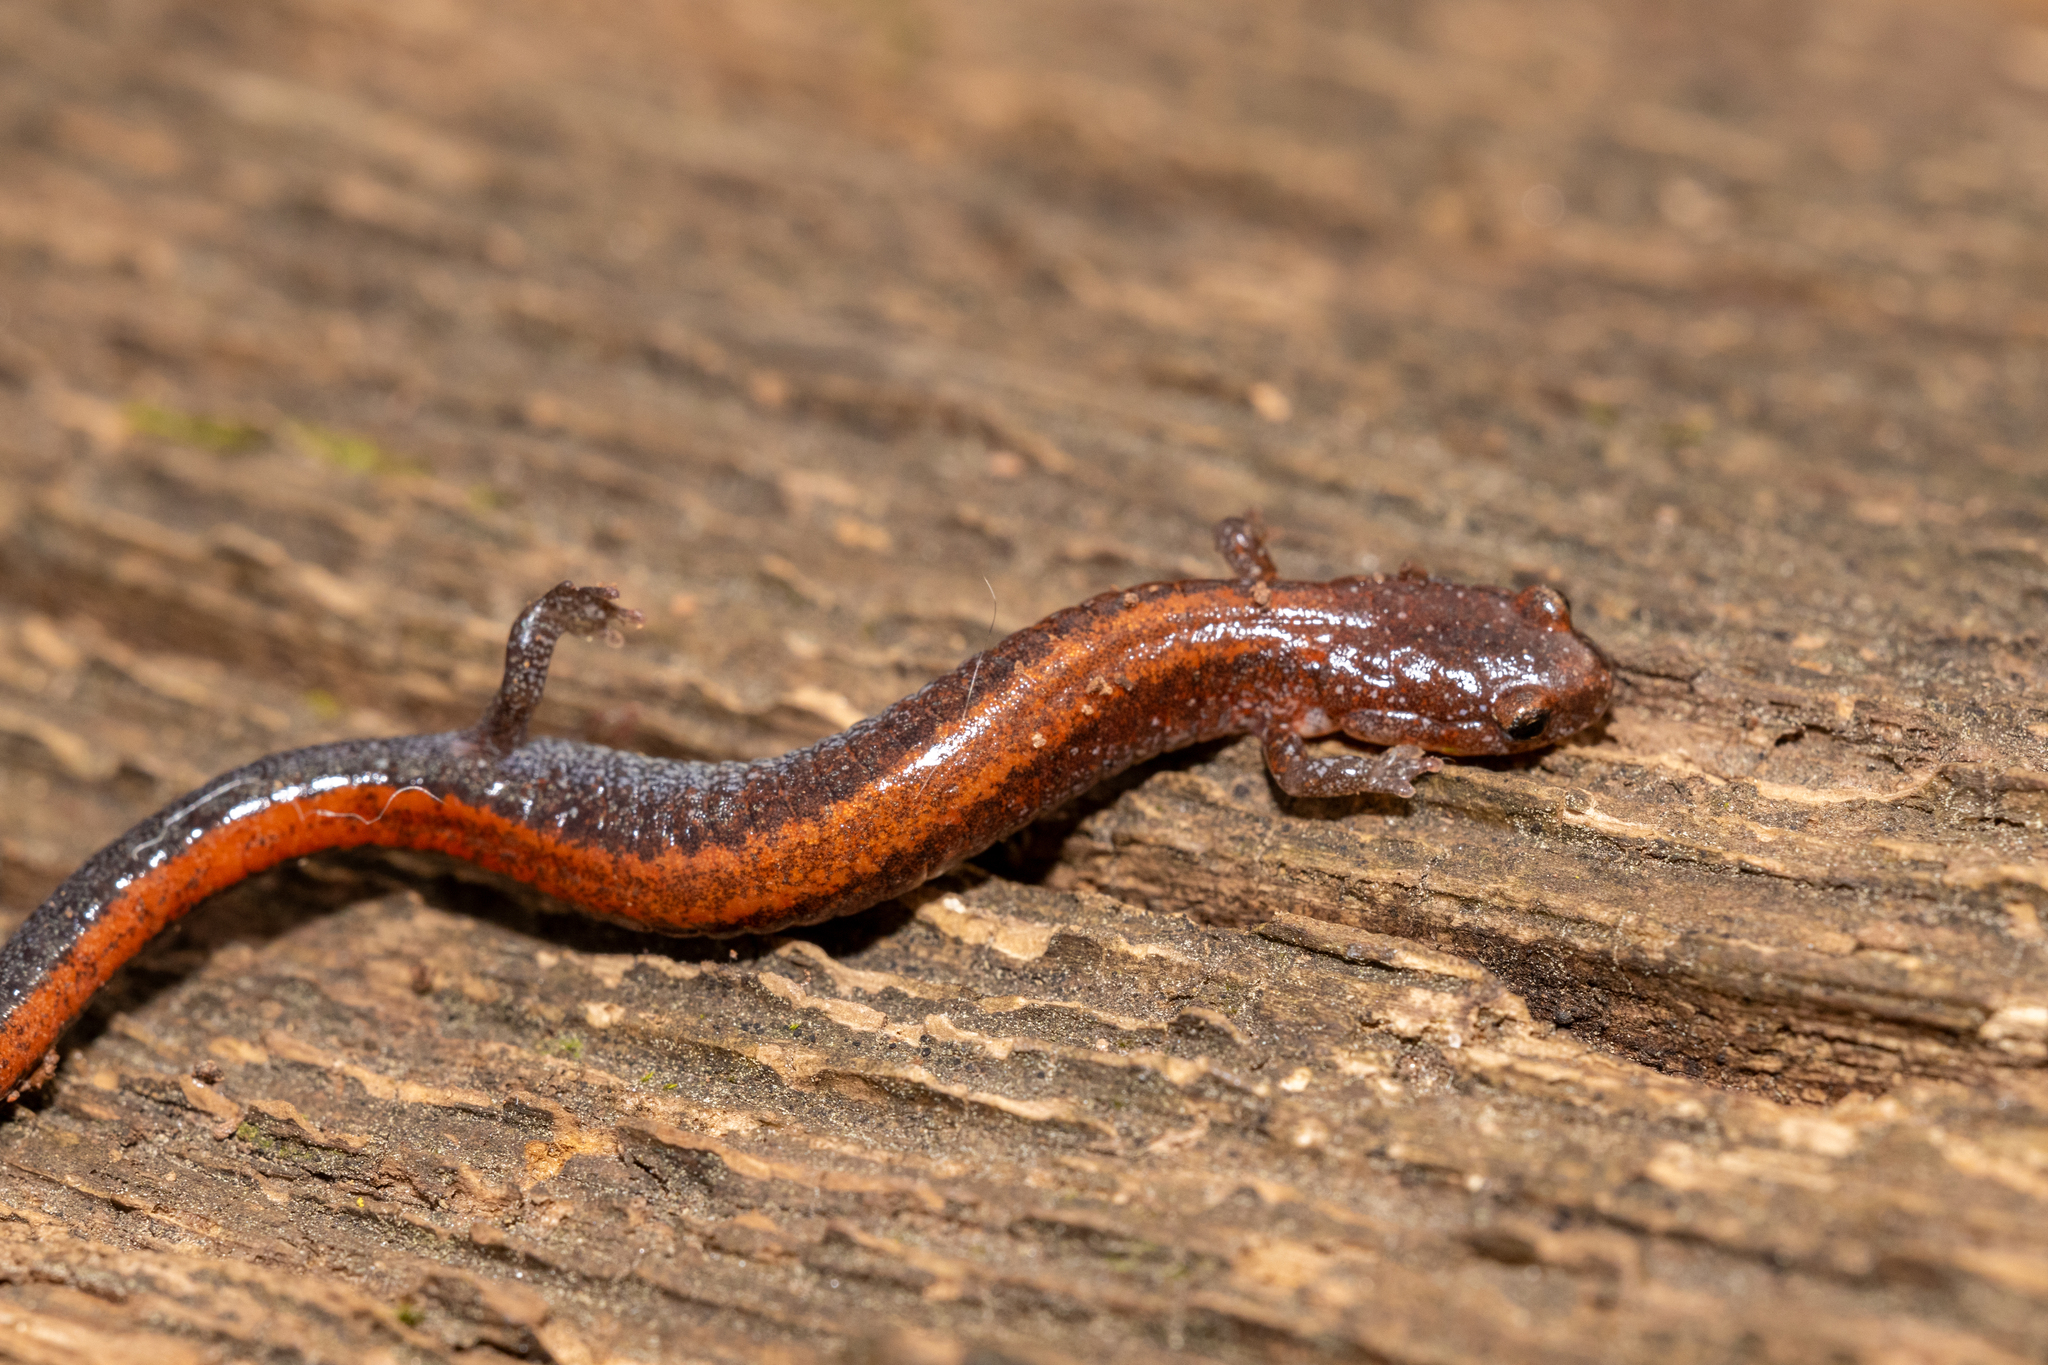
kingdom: Animalia
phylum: Chordata
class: Amphibia
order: Caudata
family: Plethodontidae
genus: Plethodon
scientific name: Plethodon serratus
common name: Southern red-backed salamander
